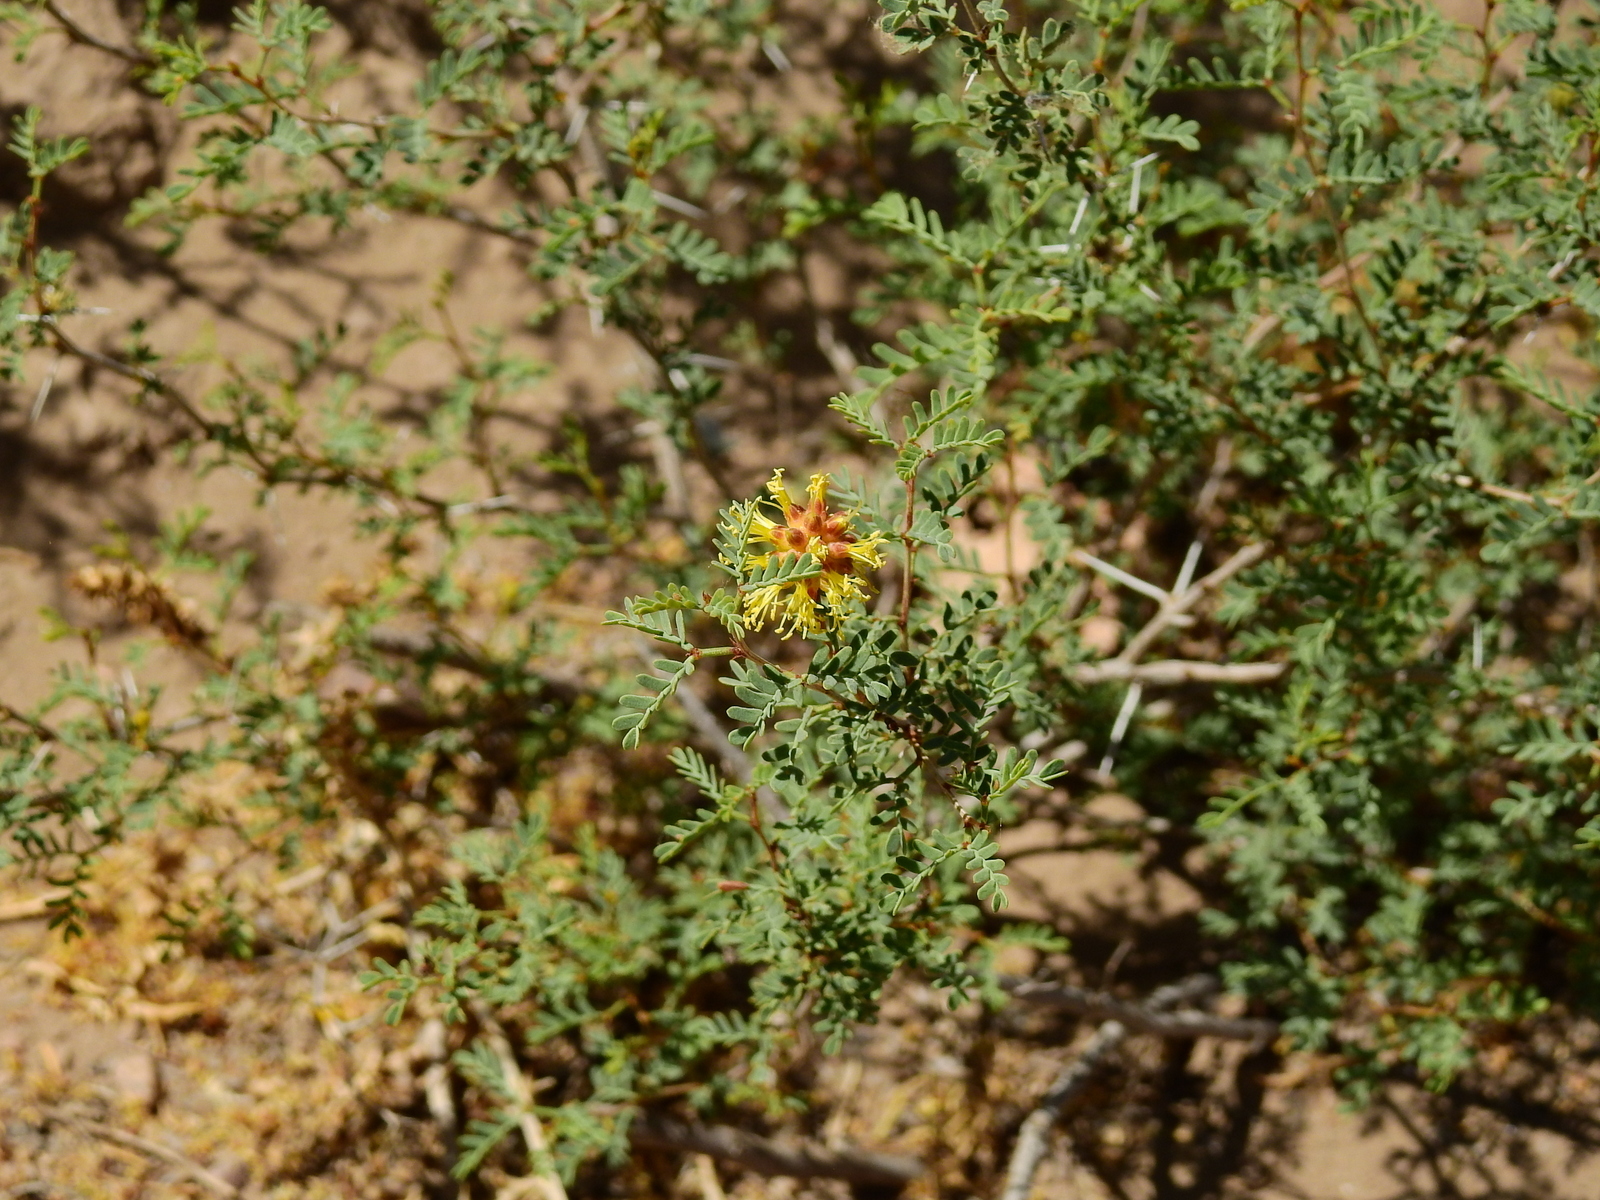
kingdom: Plantae
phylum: Tracheophyta
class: Magnoliopsida
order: Fabales
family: Fabaceae
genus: Prosopis
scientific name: Prosopis strombulifera
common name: Creeping mesquite
